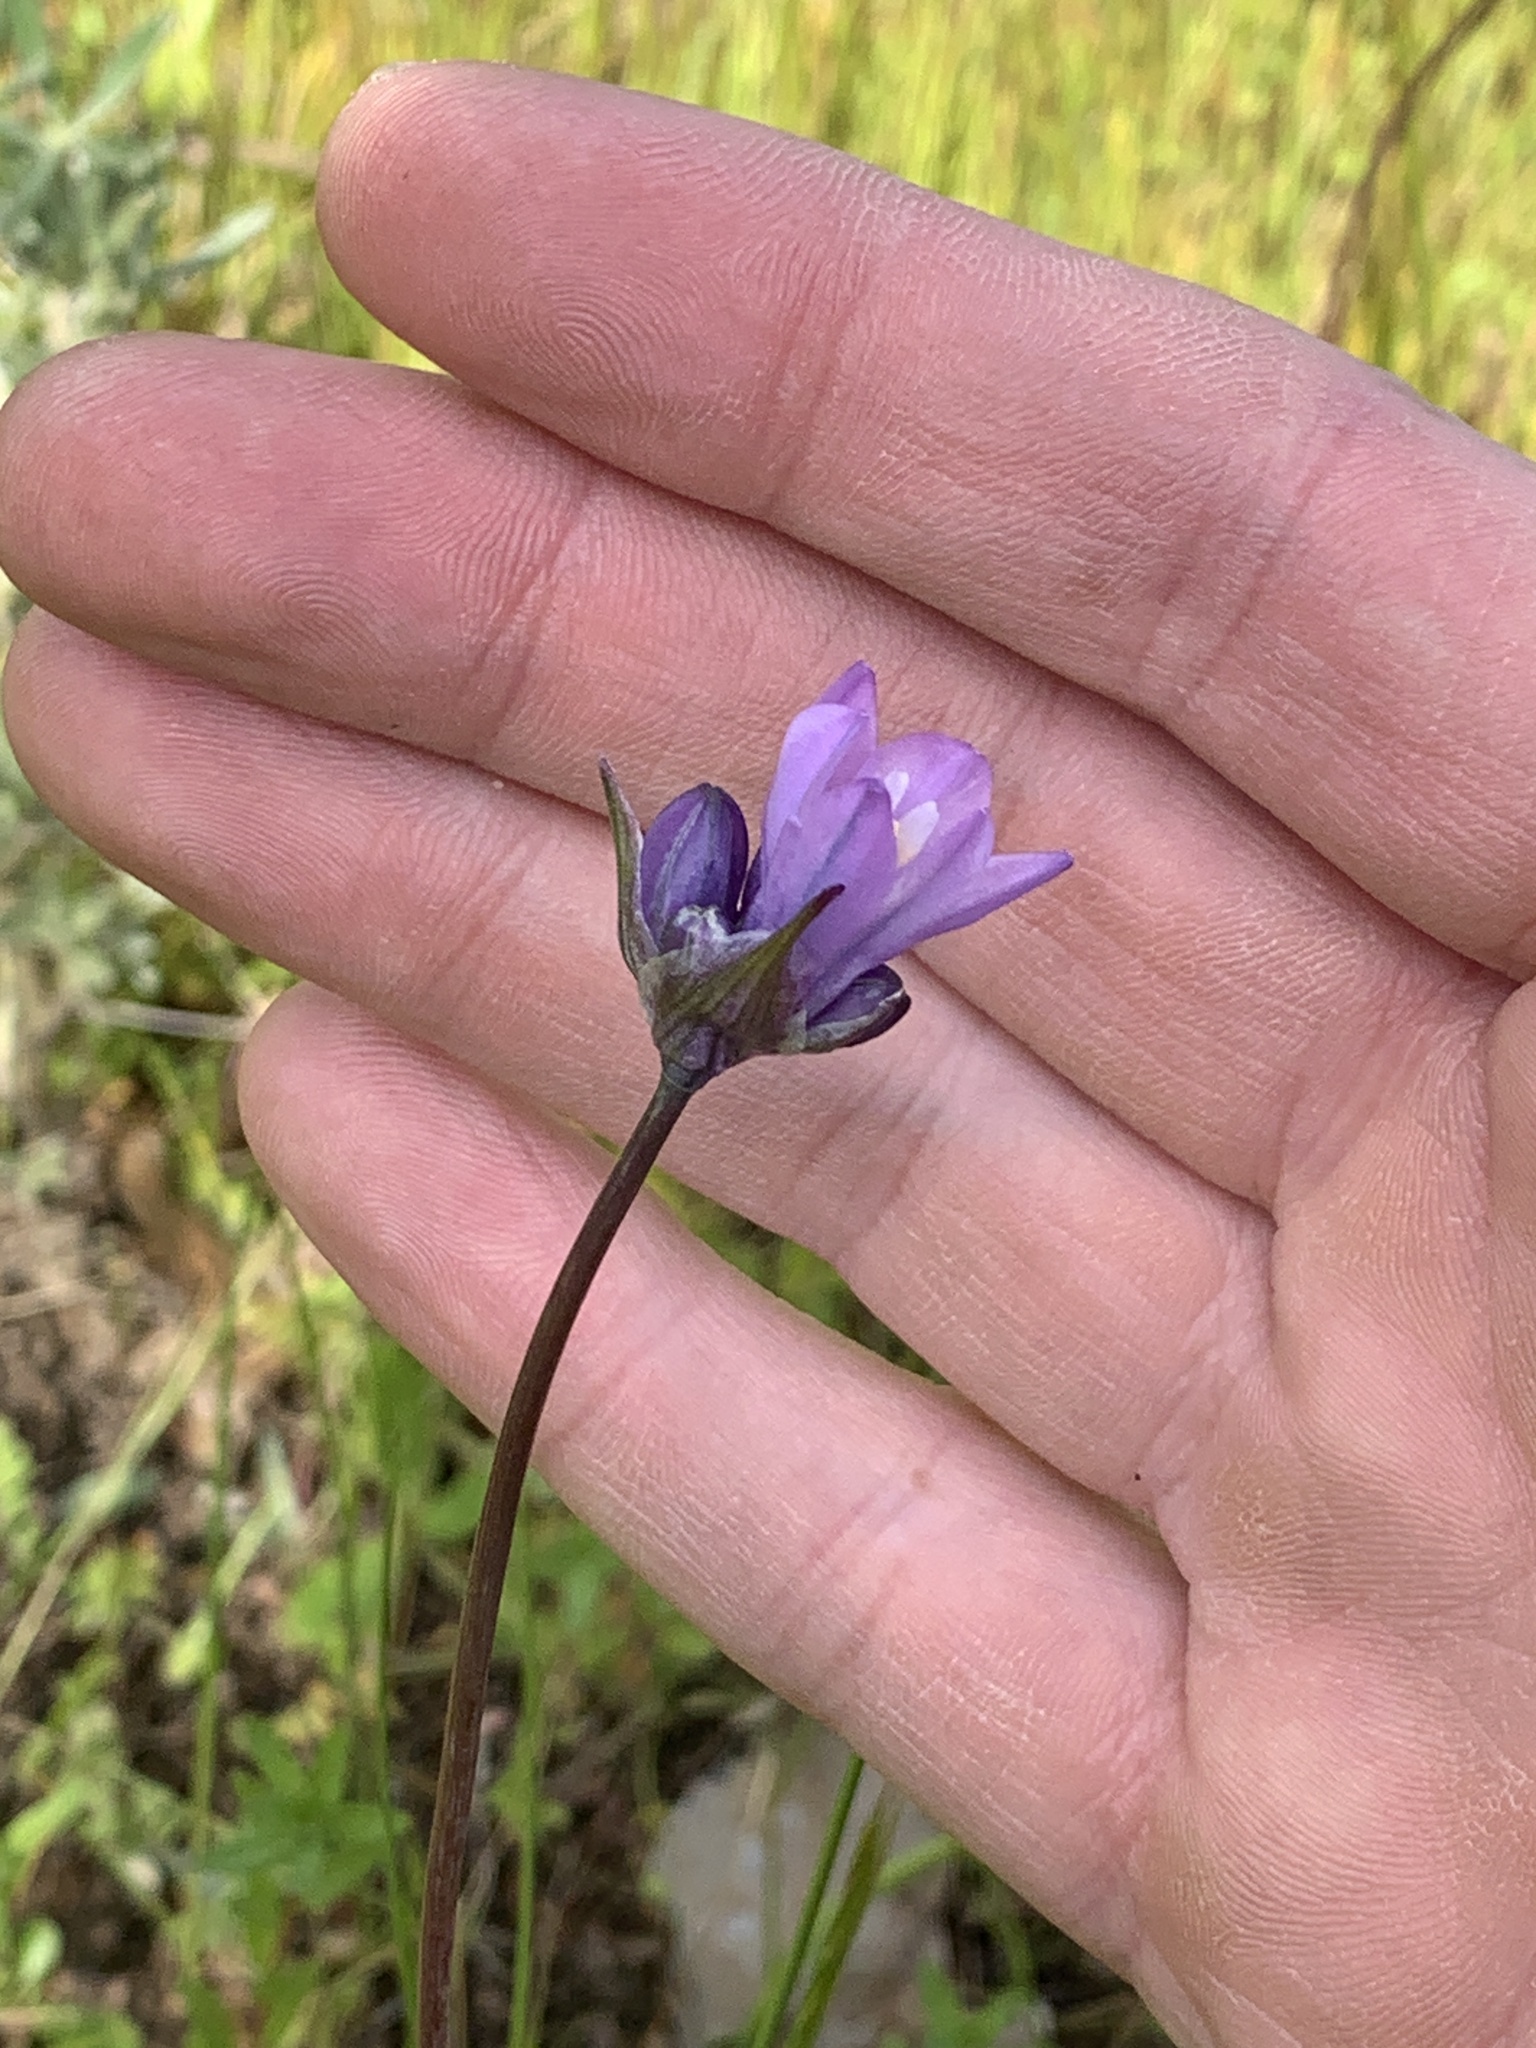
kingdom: Plantae
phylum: Tracheophyta
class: Liliopsida
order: Asparagales
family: Asparagaceae
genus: Dipterostemon
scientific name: Dipterostemon capitatus
